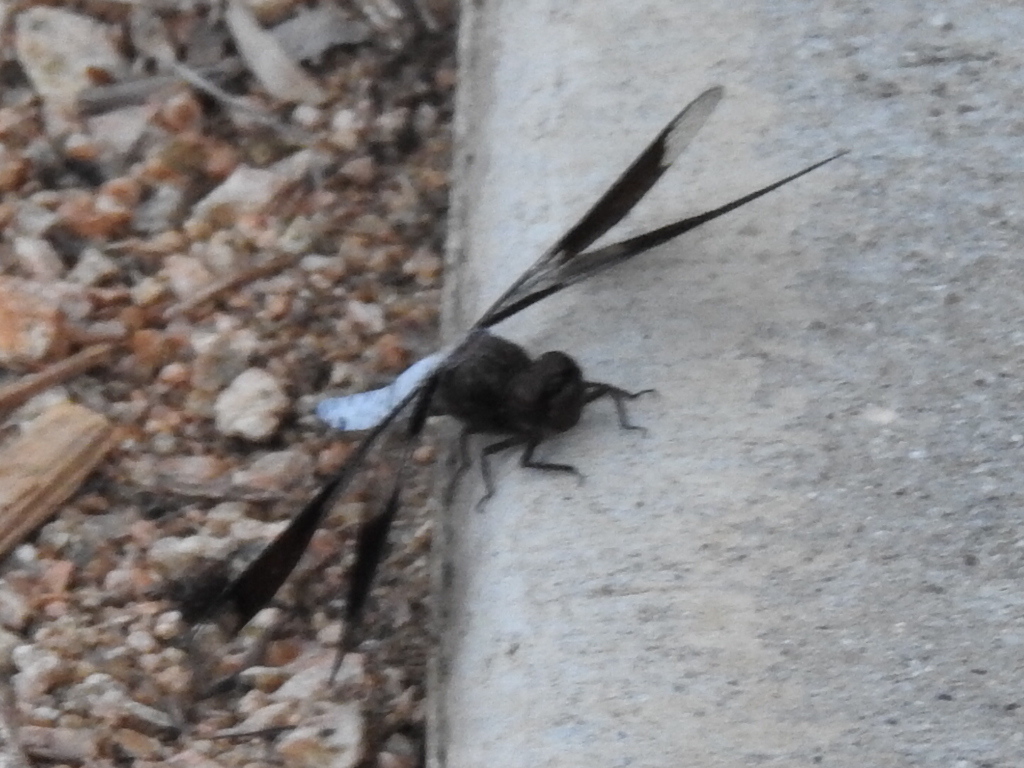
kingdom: Animalia
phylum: Arthropoda
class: Insecta
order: Odonata
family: Libellulidae
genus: Plathemis
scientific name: Plathemis lydia
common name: Common whitetail
